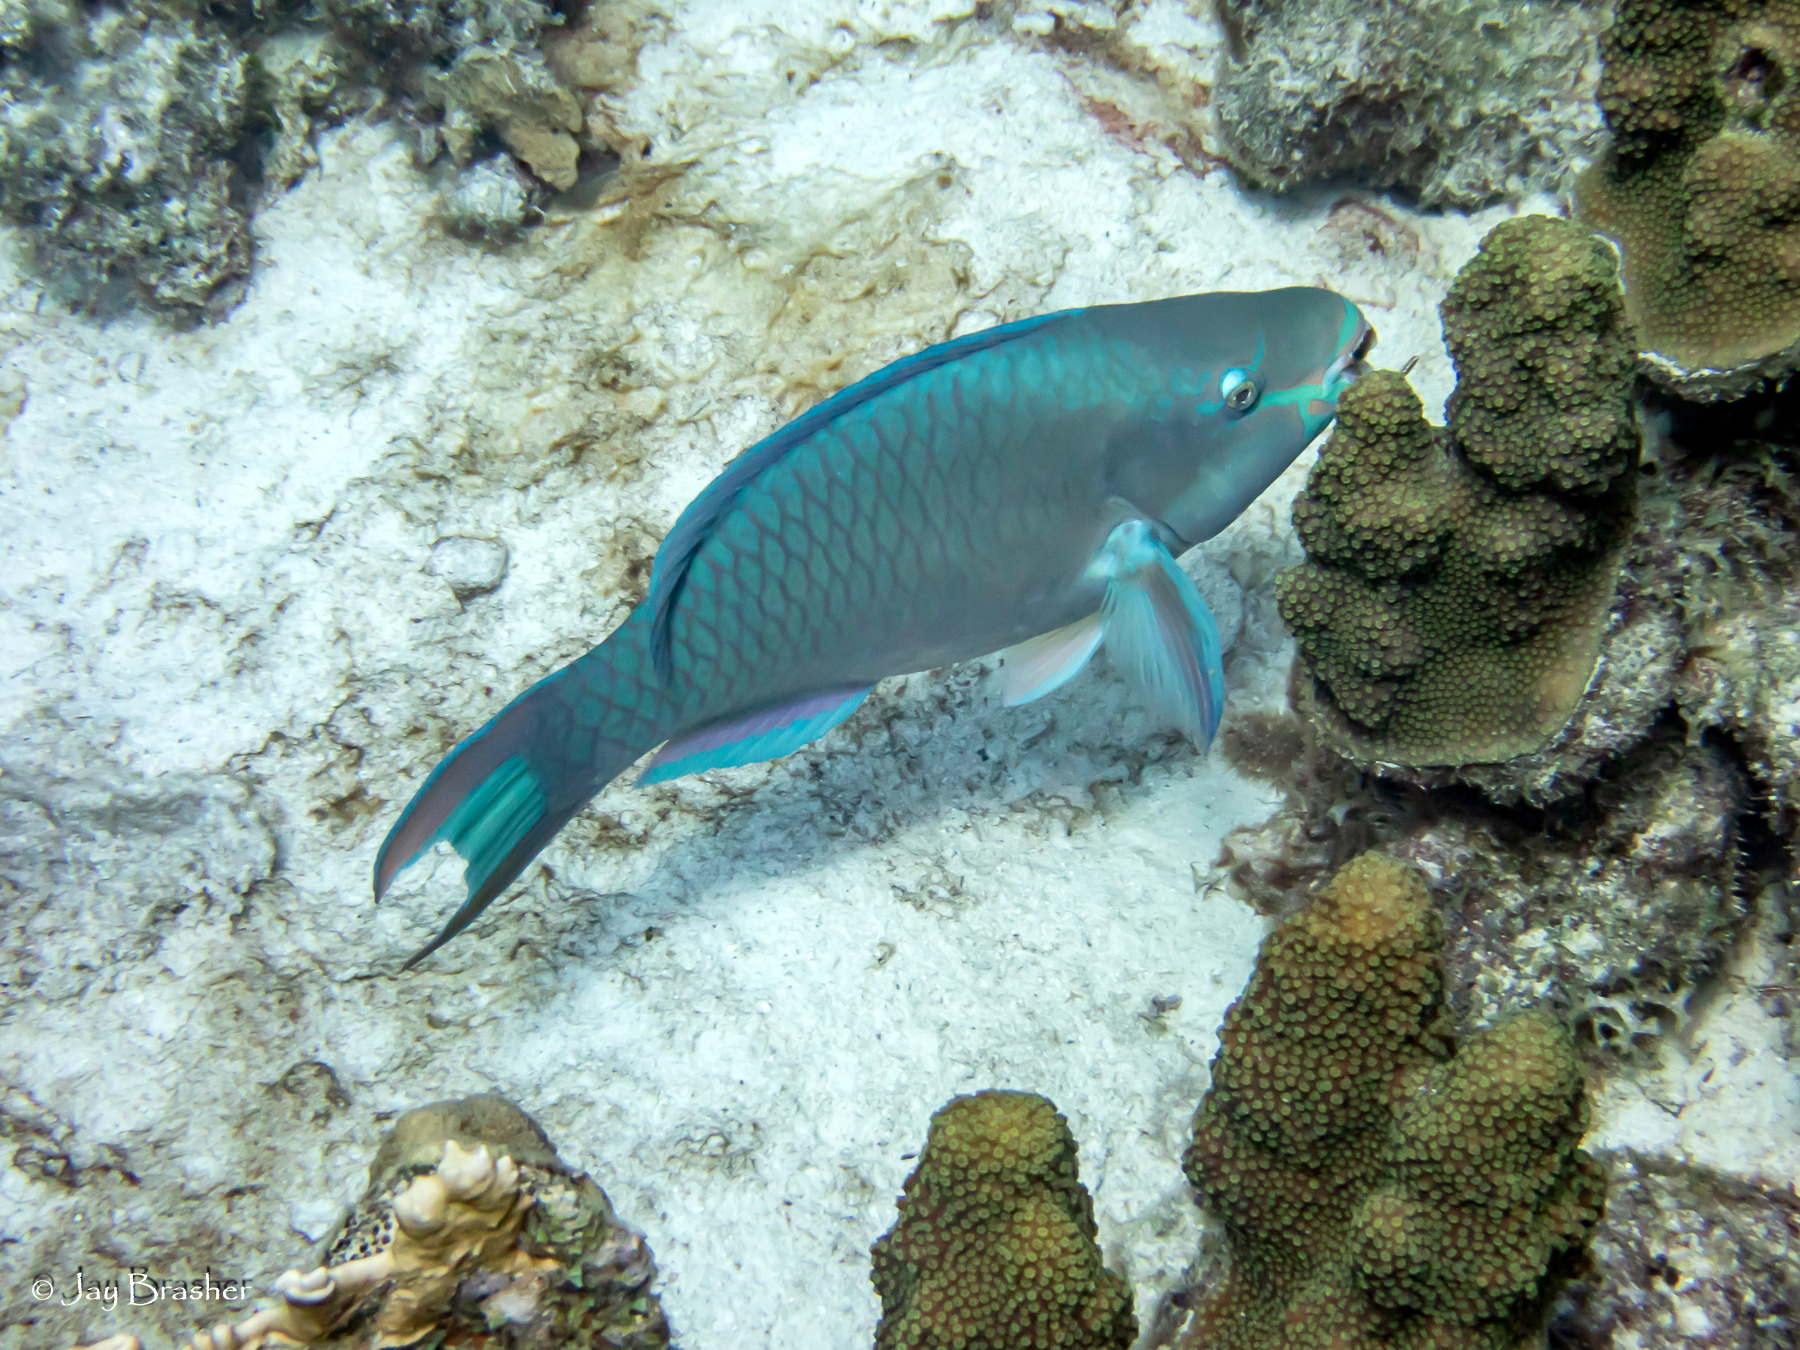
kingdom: Animalia
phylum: Chordata
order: Perciformes
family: Scaridae
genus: Scarus
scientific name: Scarus vetula
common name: Queen parrotfish
